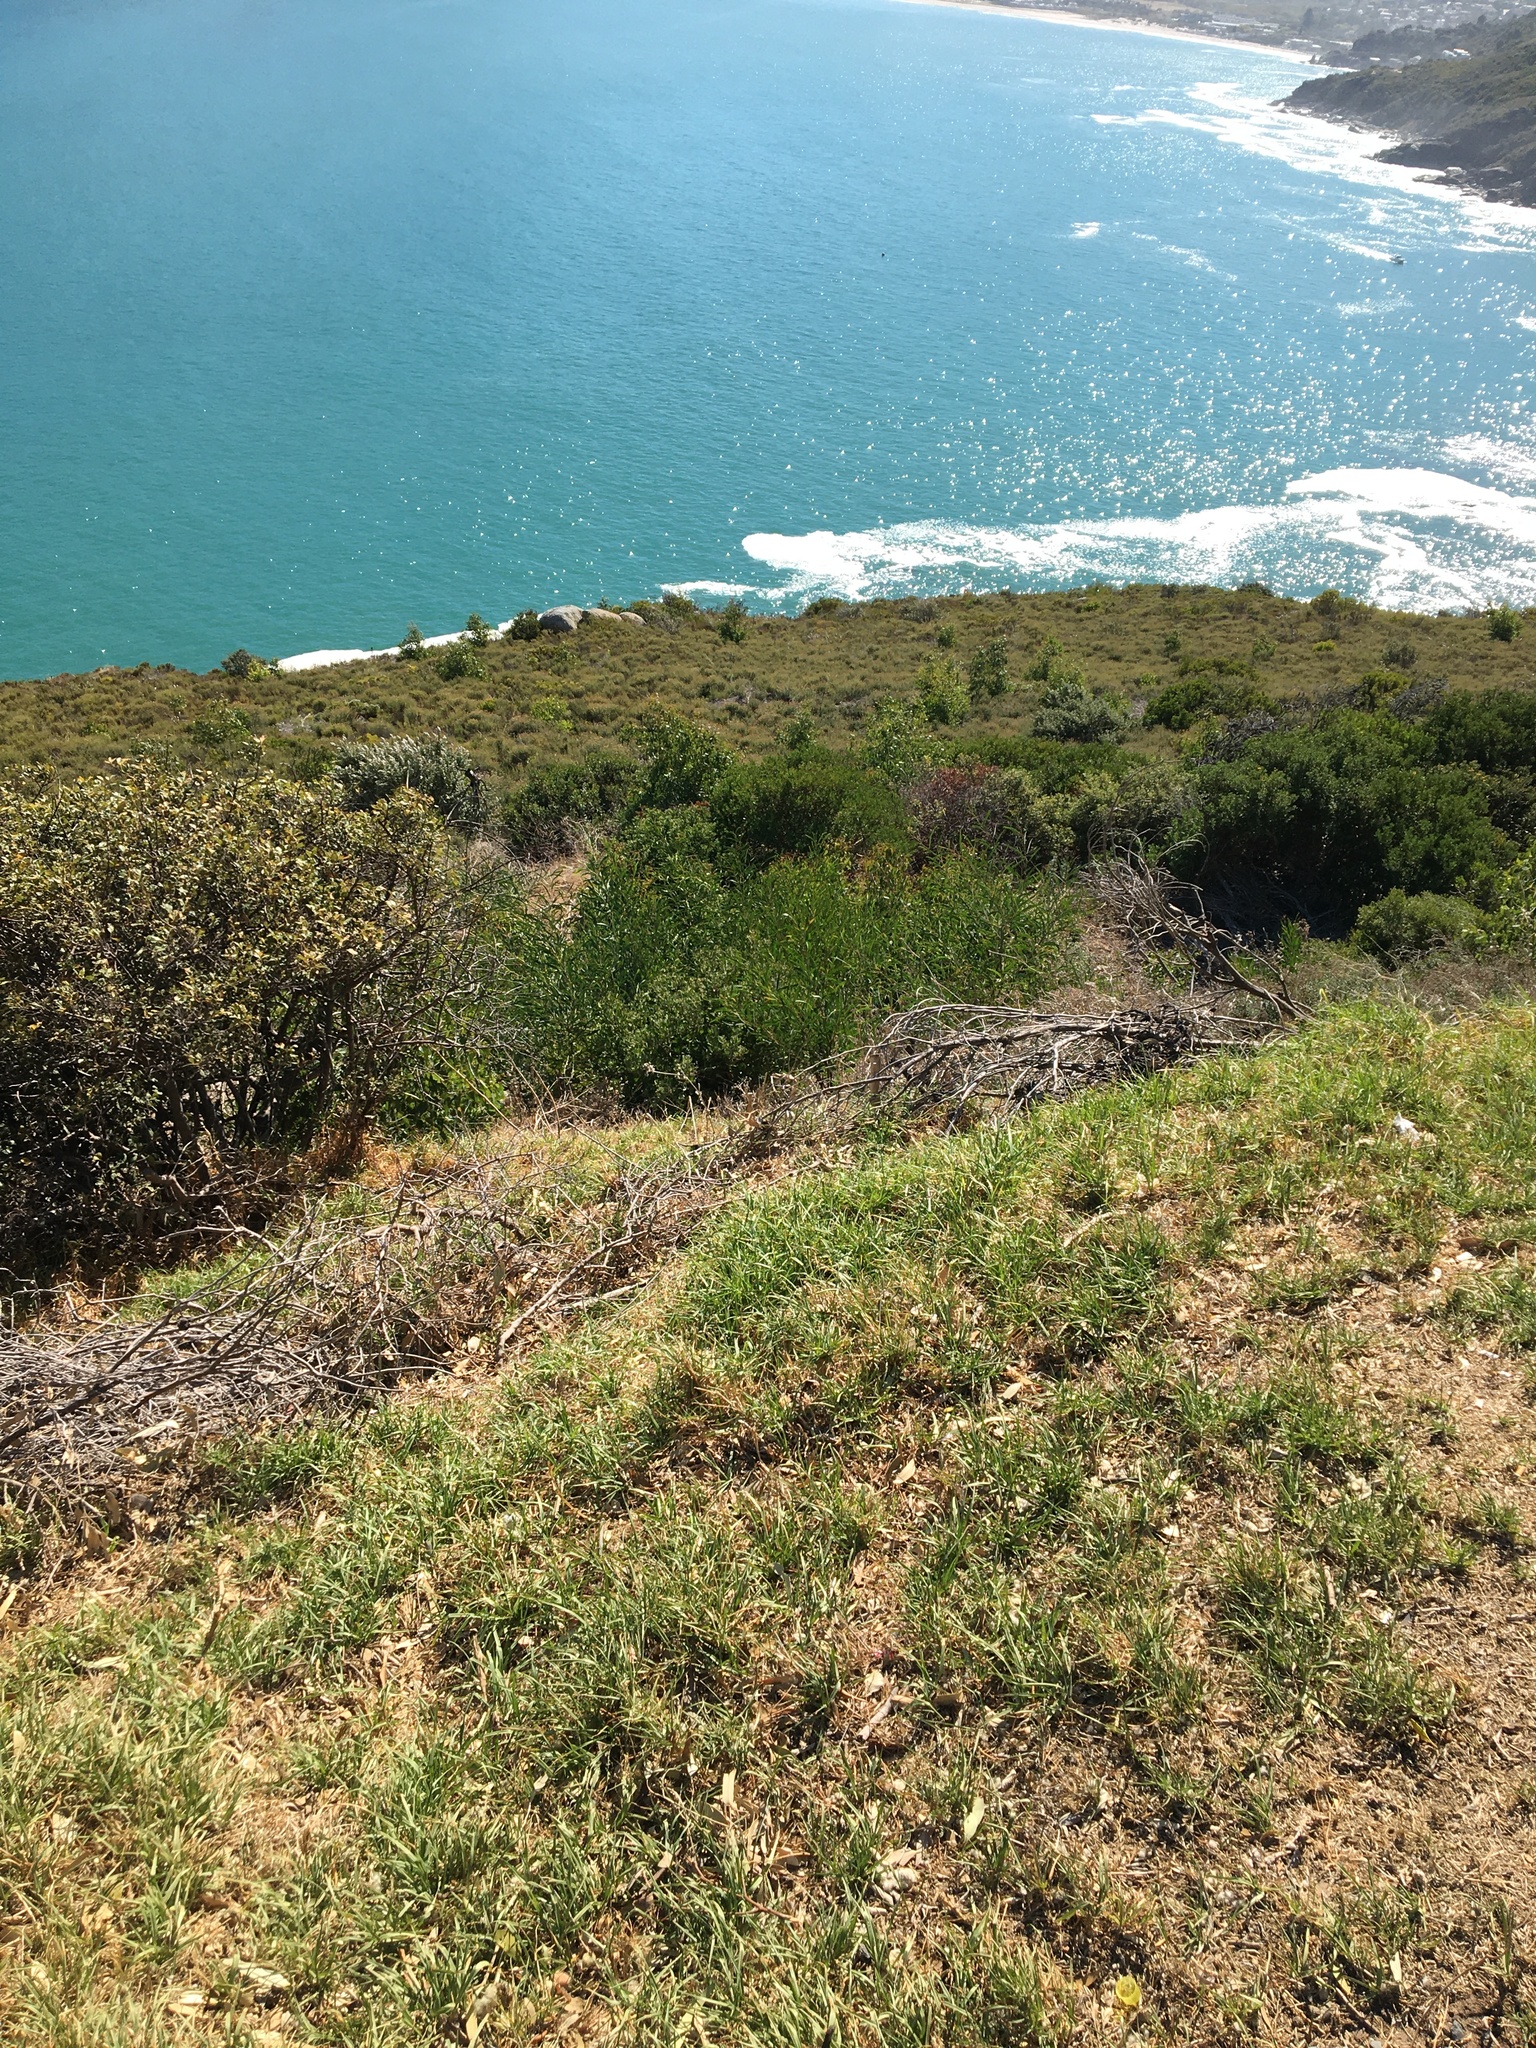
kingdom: Plantae
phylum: Tracheophyta
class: Magnoliopsida
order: Fabales
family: Fabaceae
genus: Acacia
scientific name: Acacia saligna
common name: Orange wattle
